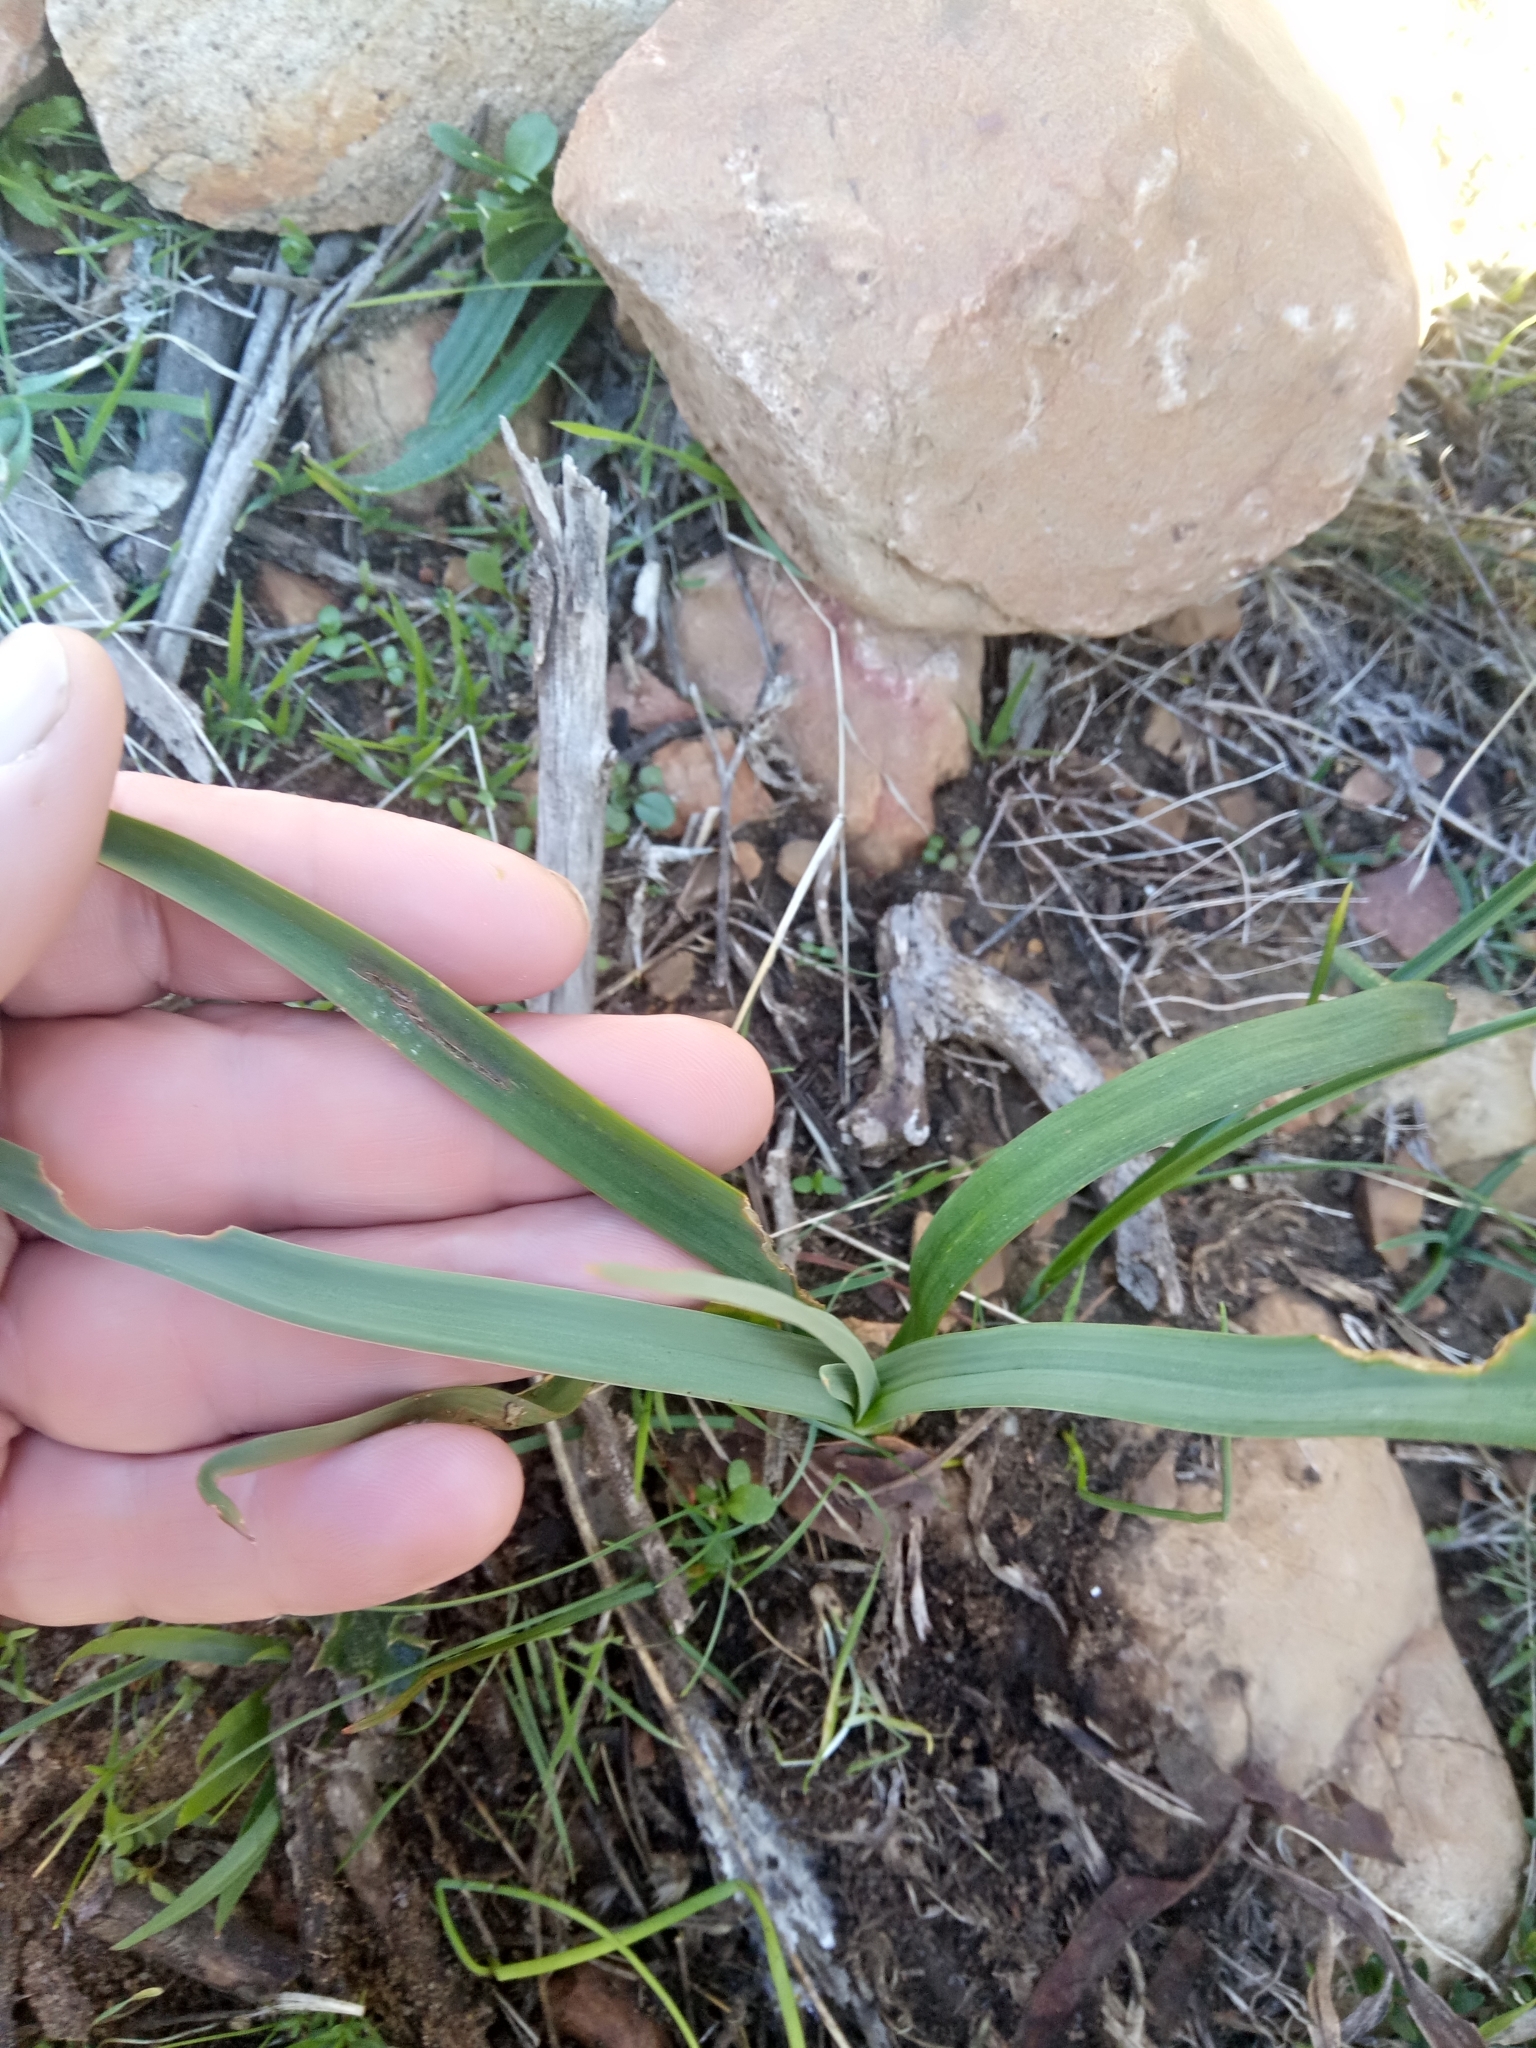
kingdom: Plantae
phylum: Tracheophyta
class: Liliopsida
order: Asparagales
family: Asphodelaceae
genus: Asphodelus
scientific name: Asphodelus ramosus
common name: Silverrod
